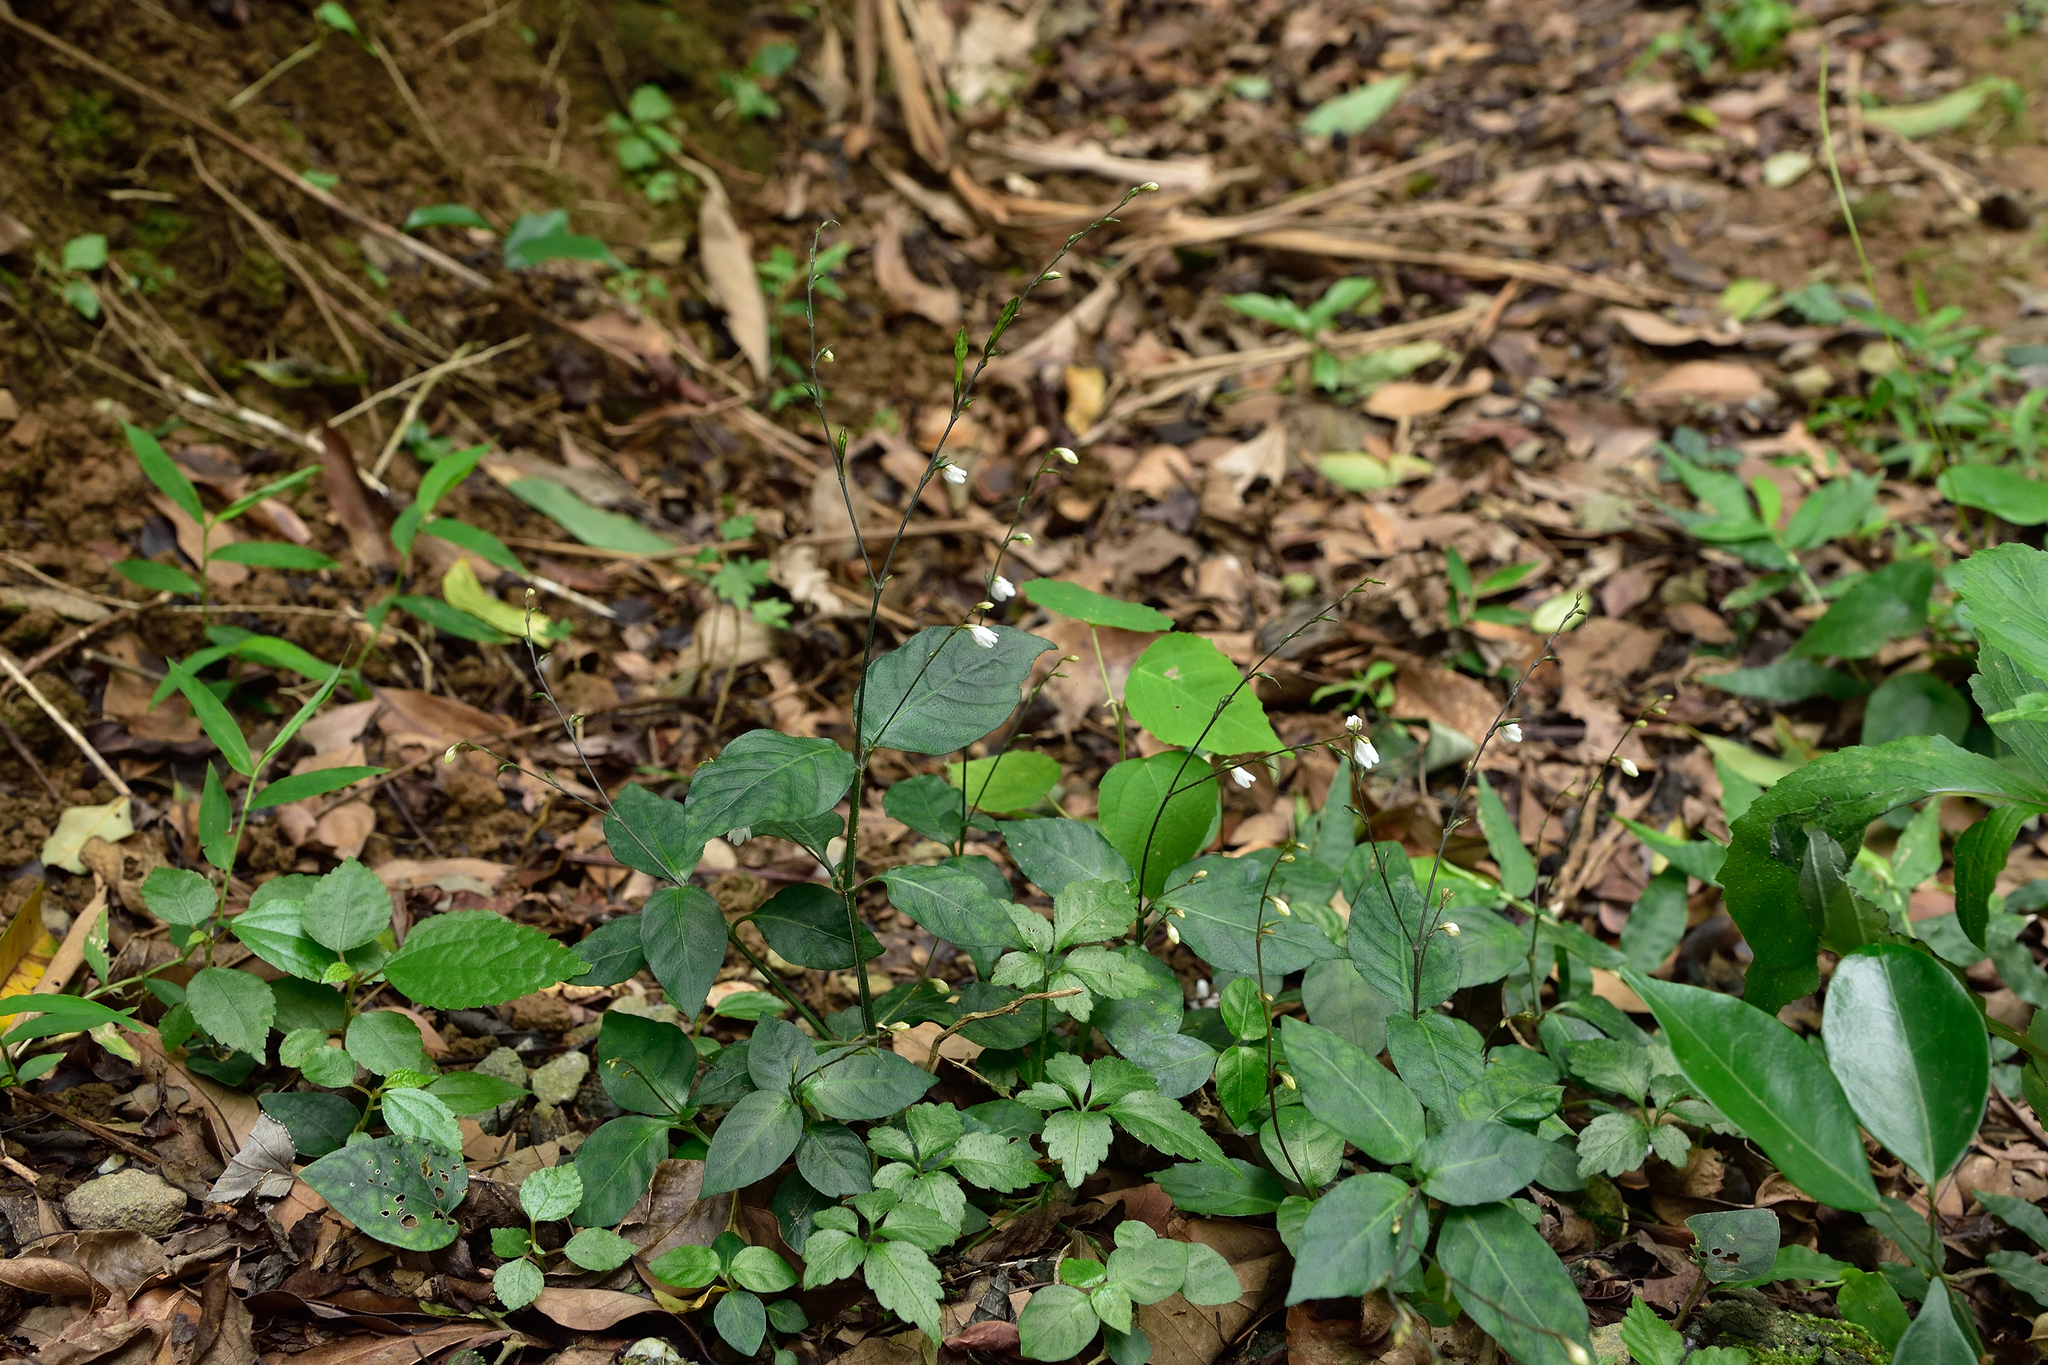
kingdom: Plantae
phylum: Tracheophyta
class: Magnoliopsida
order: Lamiales
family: Acanthaceae
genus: Codonacanthus
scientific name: Codonacanthus pauciflorus
